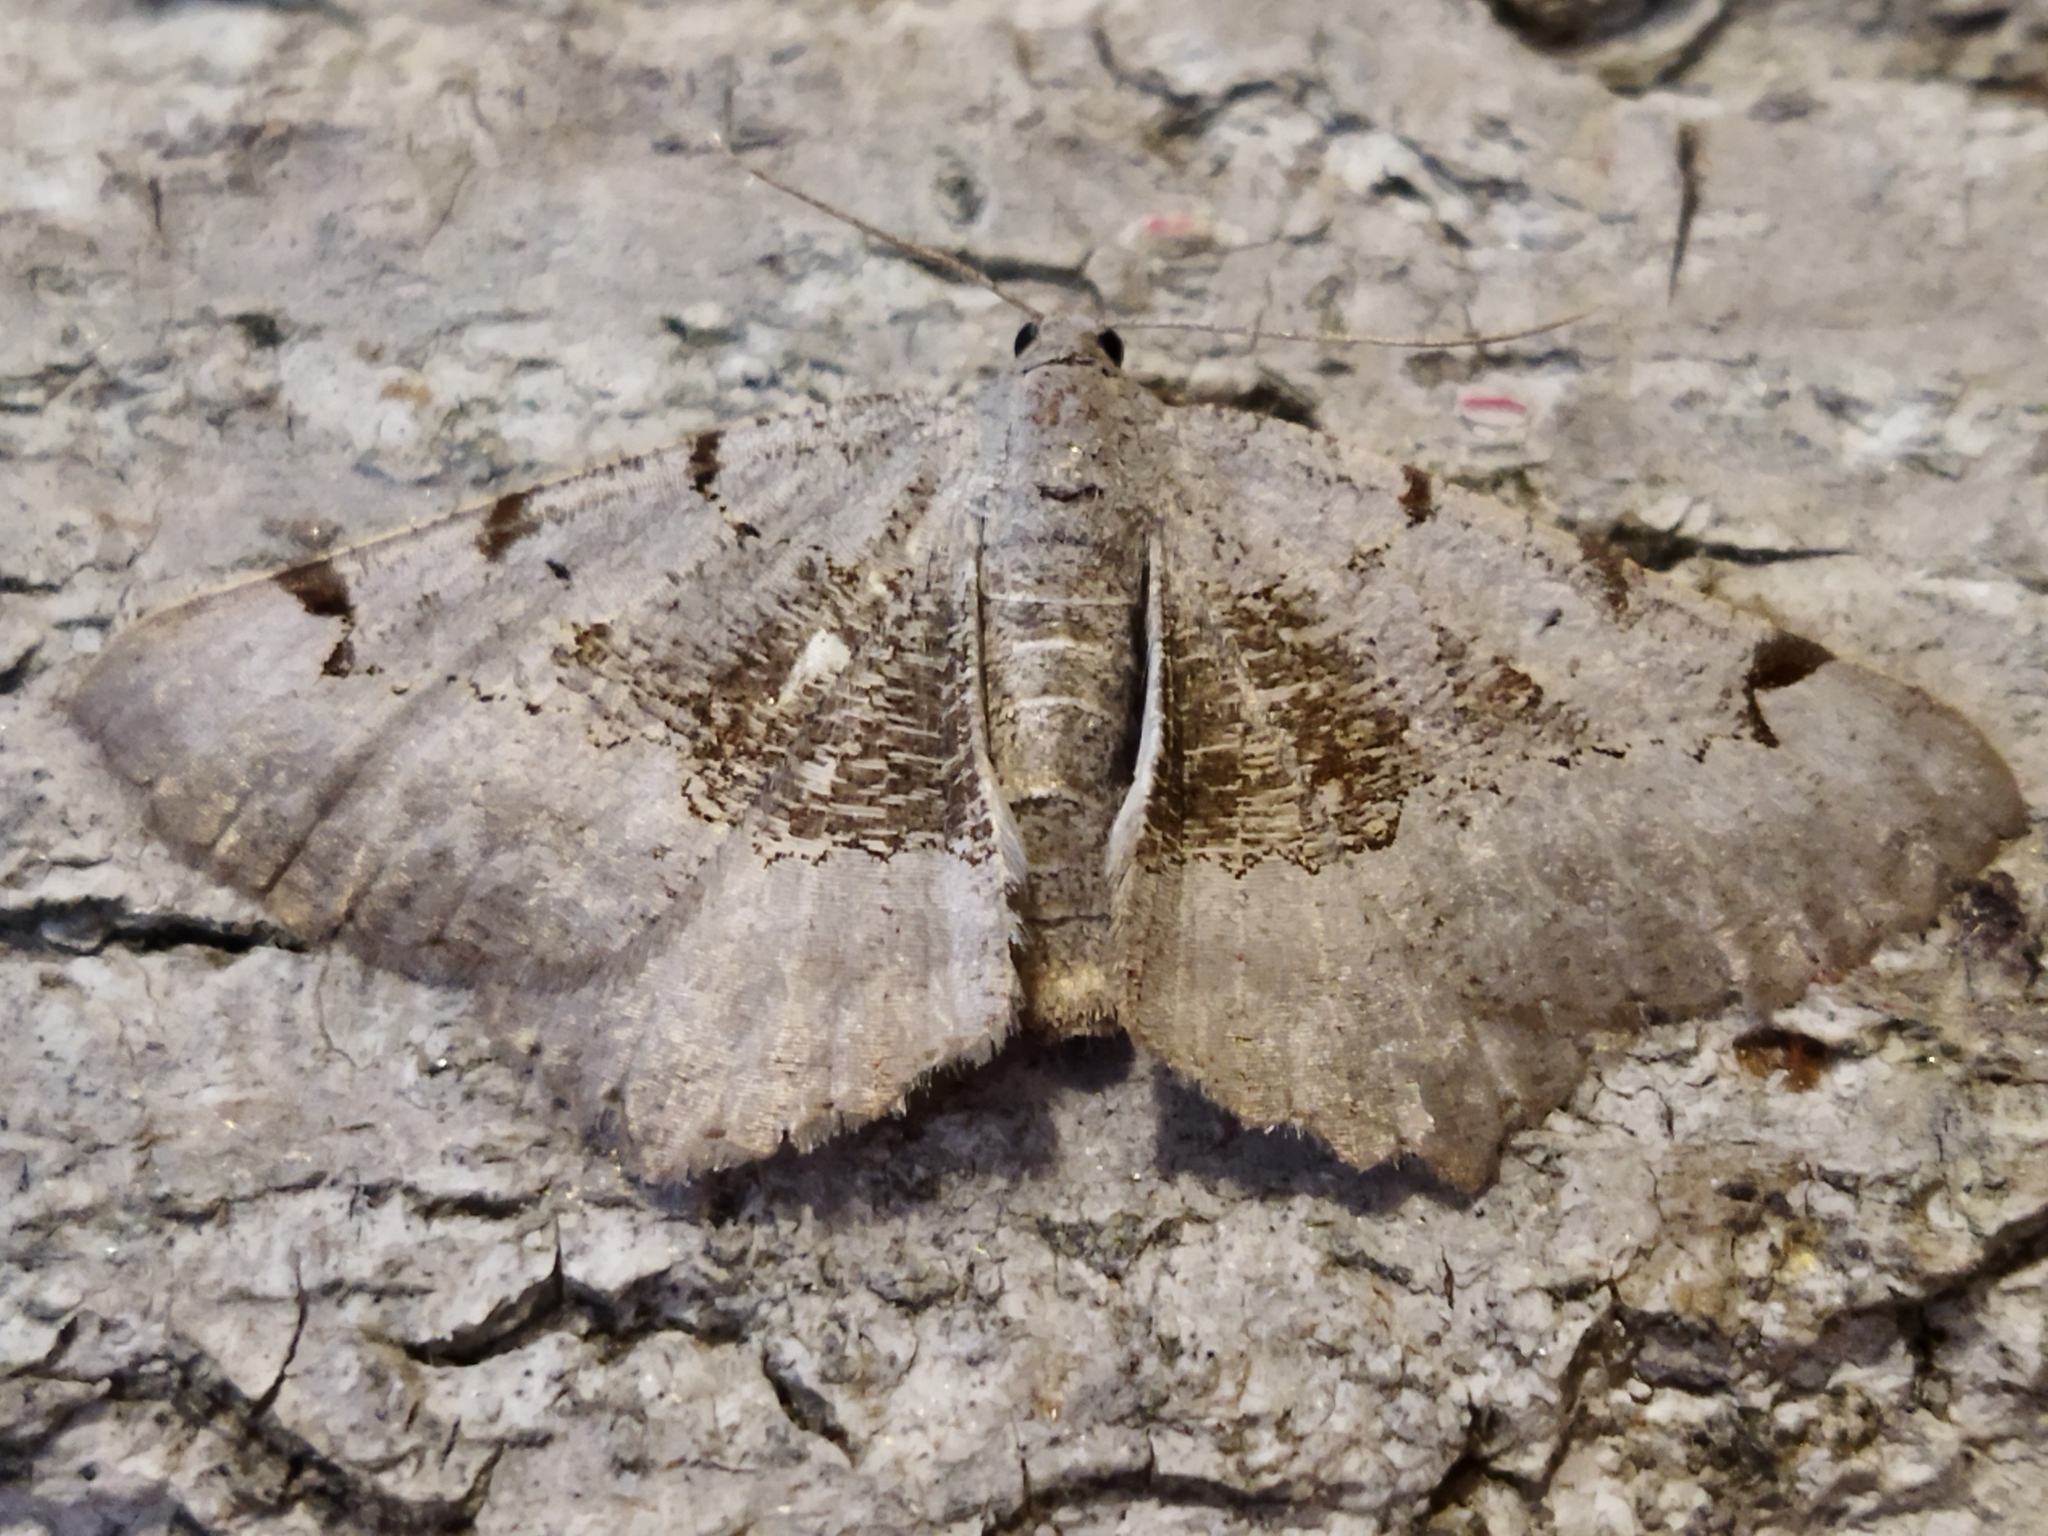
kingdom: Animalia
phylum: Arthropoda
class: Insecta
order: Lepidoptera
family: Geometridae
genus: Neognopharmia
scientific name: Neognopharmia stevenaria
